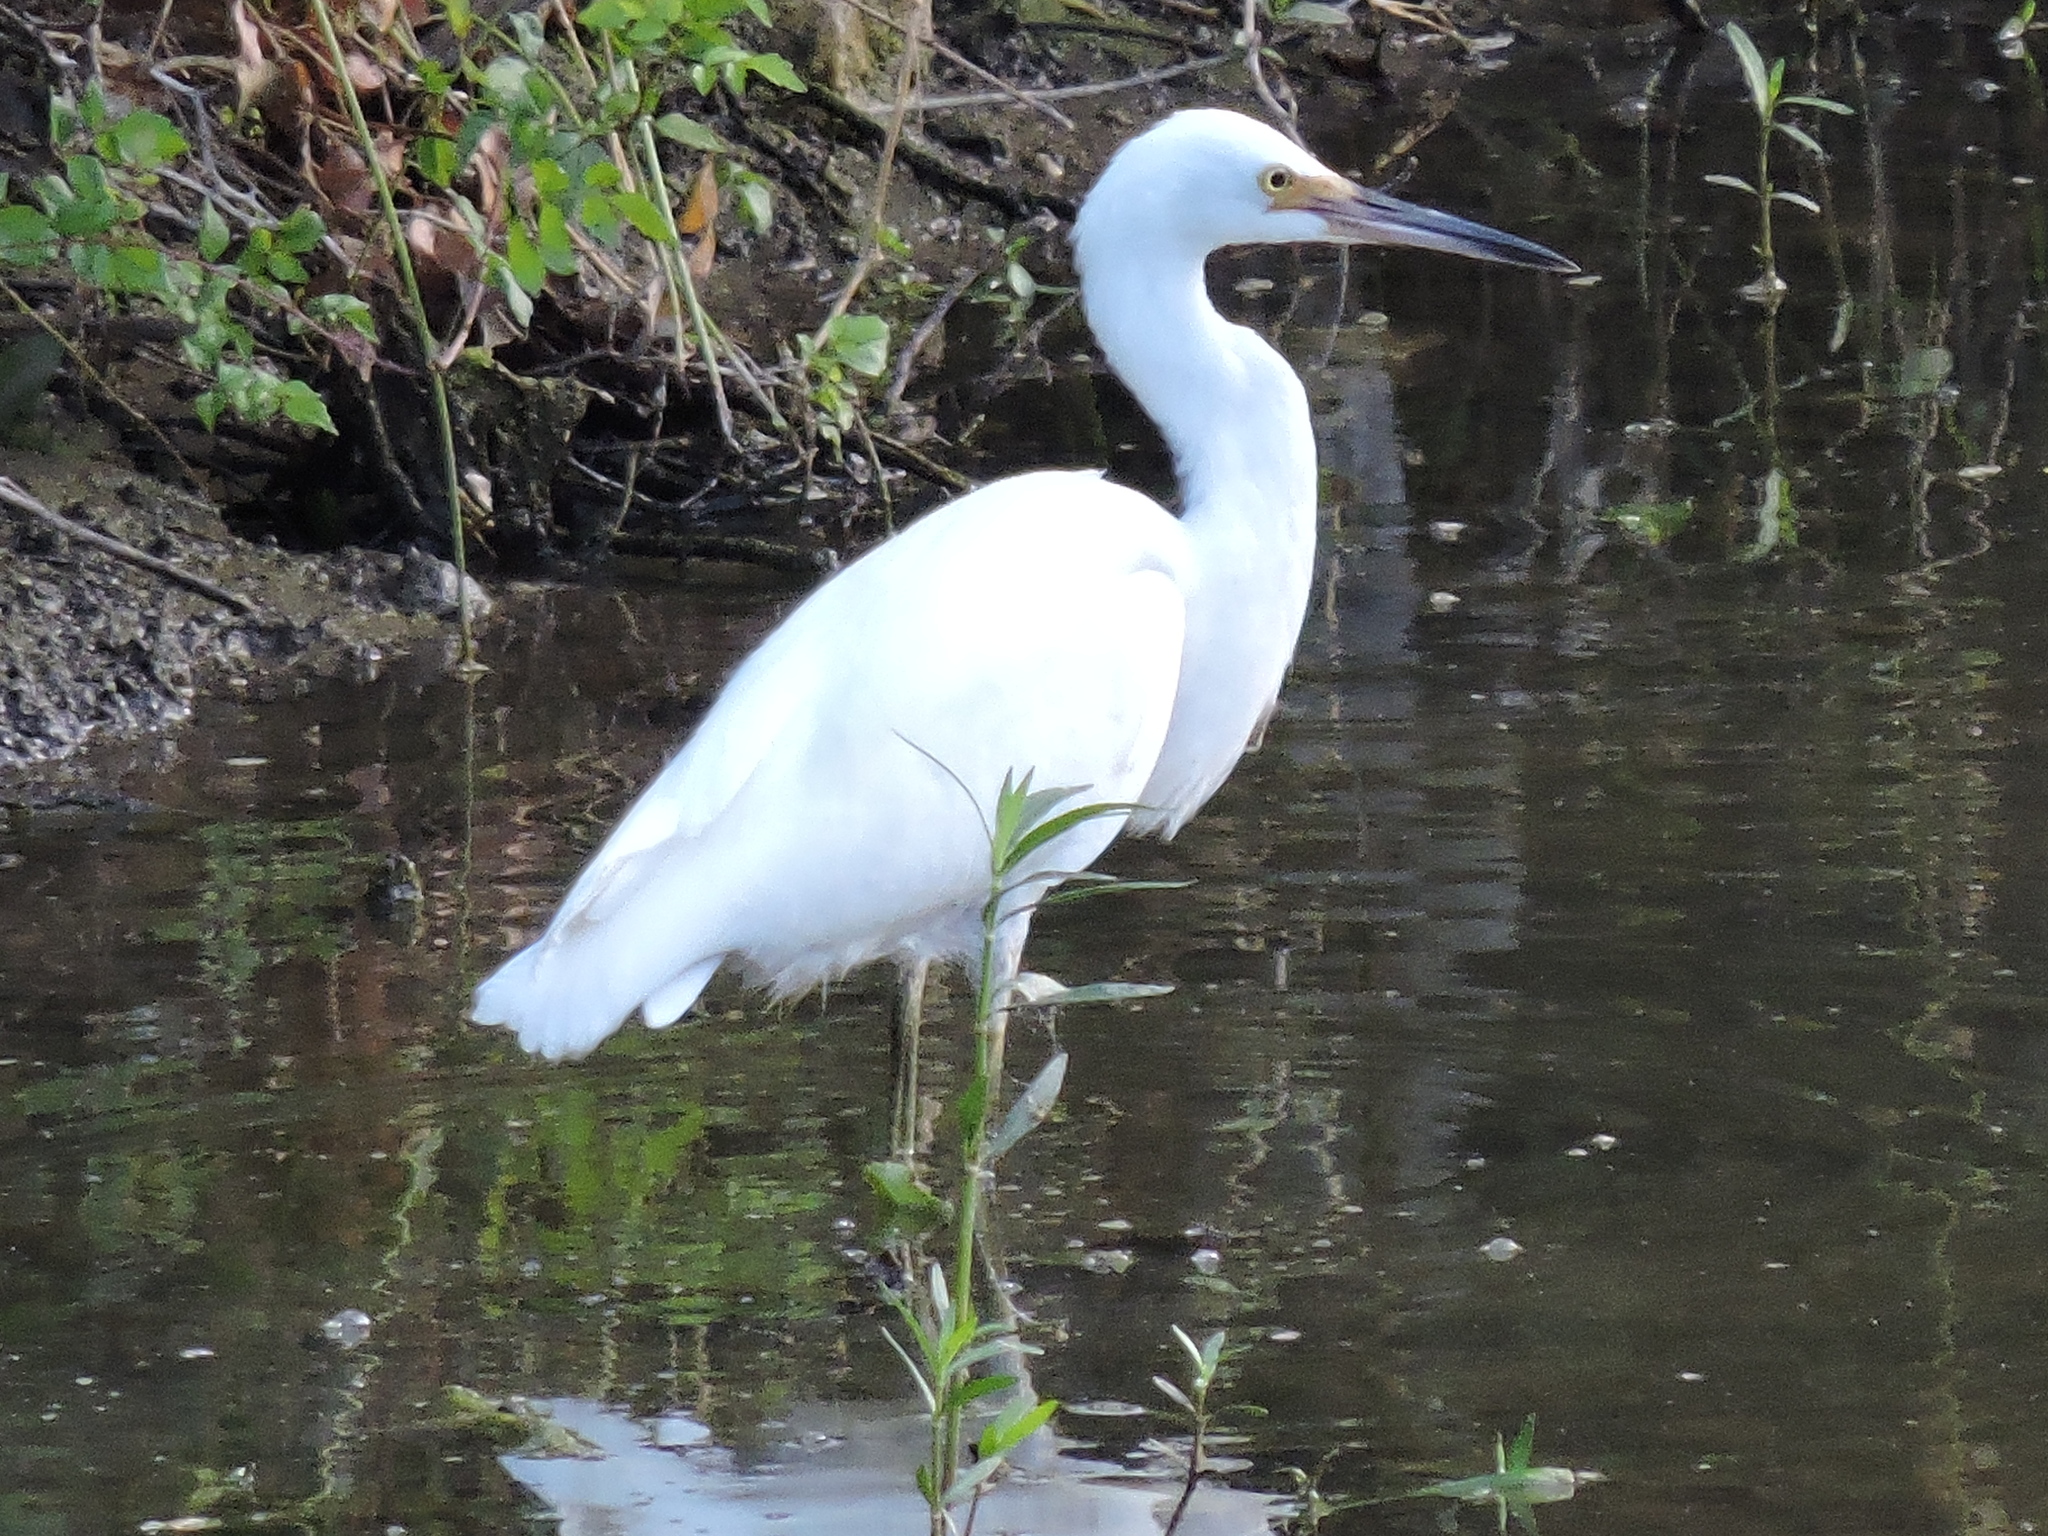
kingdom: Animalia
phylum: Chordata
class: Aves
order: Pelecaniformes
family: Ardeidae
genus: Egretta
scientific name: Egretta thula
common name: Snowy egret
